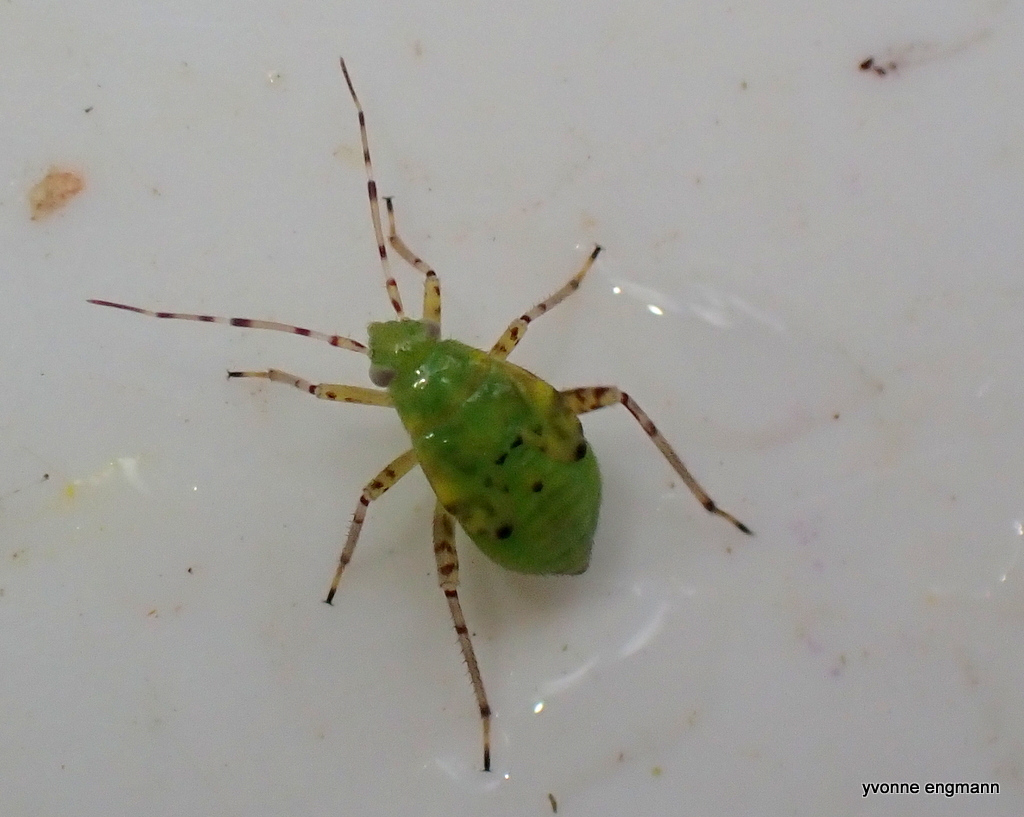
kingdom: Animalia
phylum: Arthropoda
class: Insecta
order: Hemiptera
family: Miridae
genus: Liocoris
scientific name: Liocoris tripustulatus
